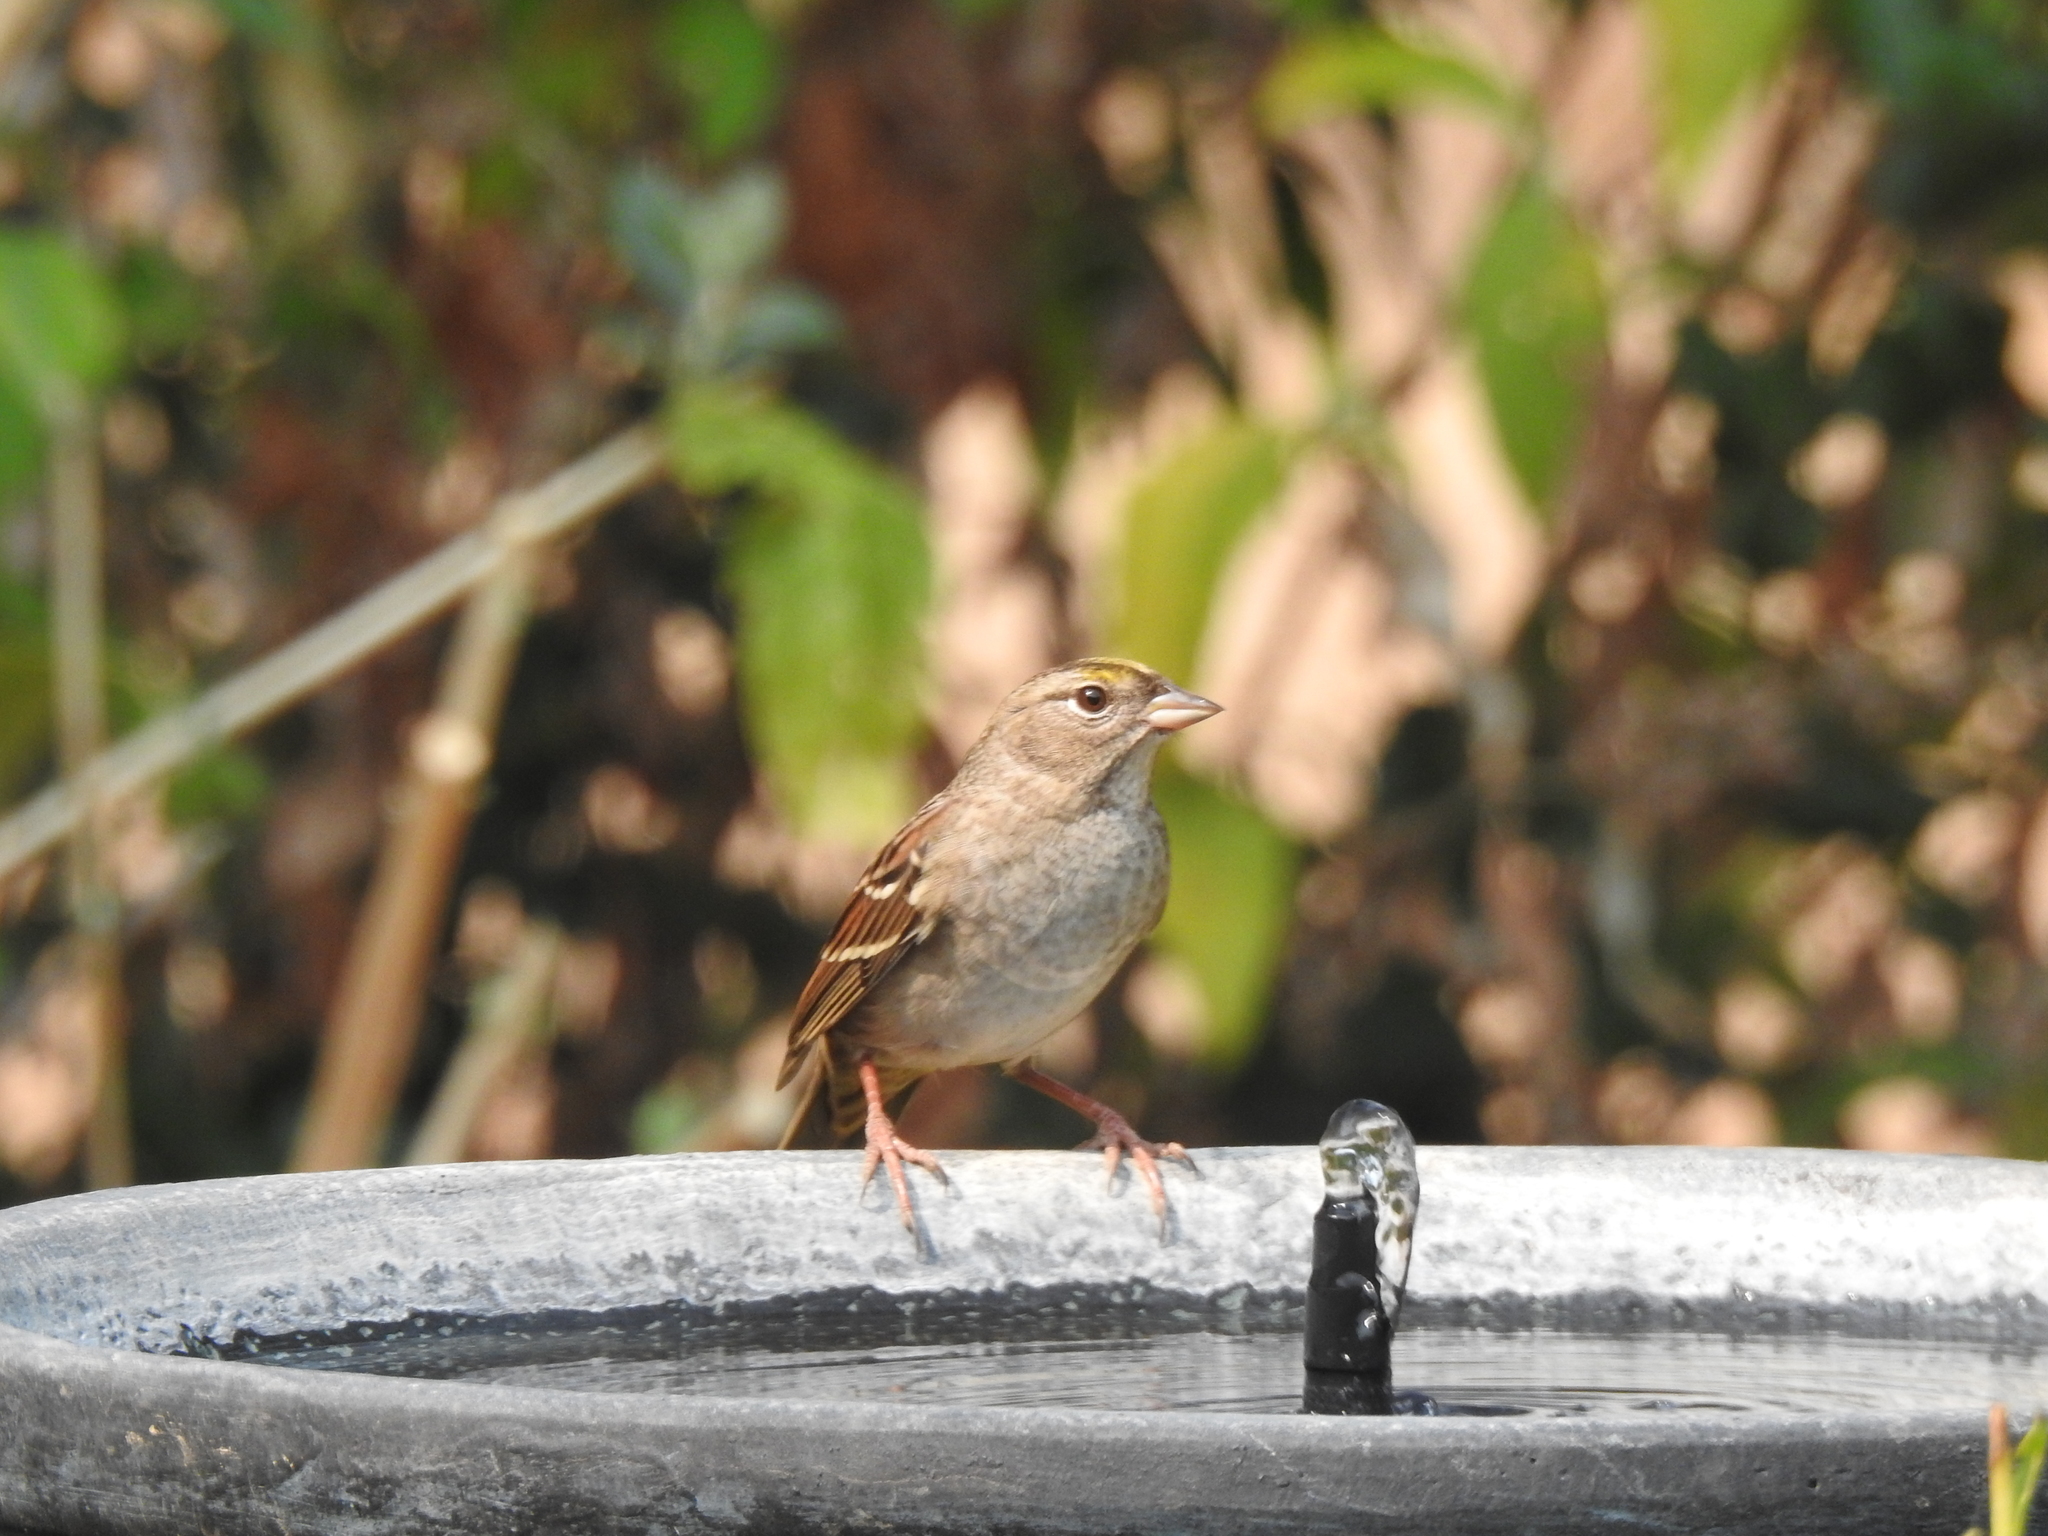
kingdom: Animalia
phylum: Chordata
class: Aves
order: Passeriformes
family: Passerellidae
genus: Zonotrichia
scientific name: Zonotrichia atricapilla
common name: Golden-crowned sparrow
